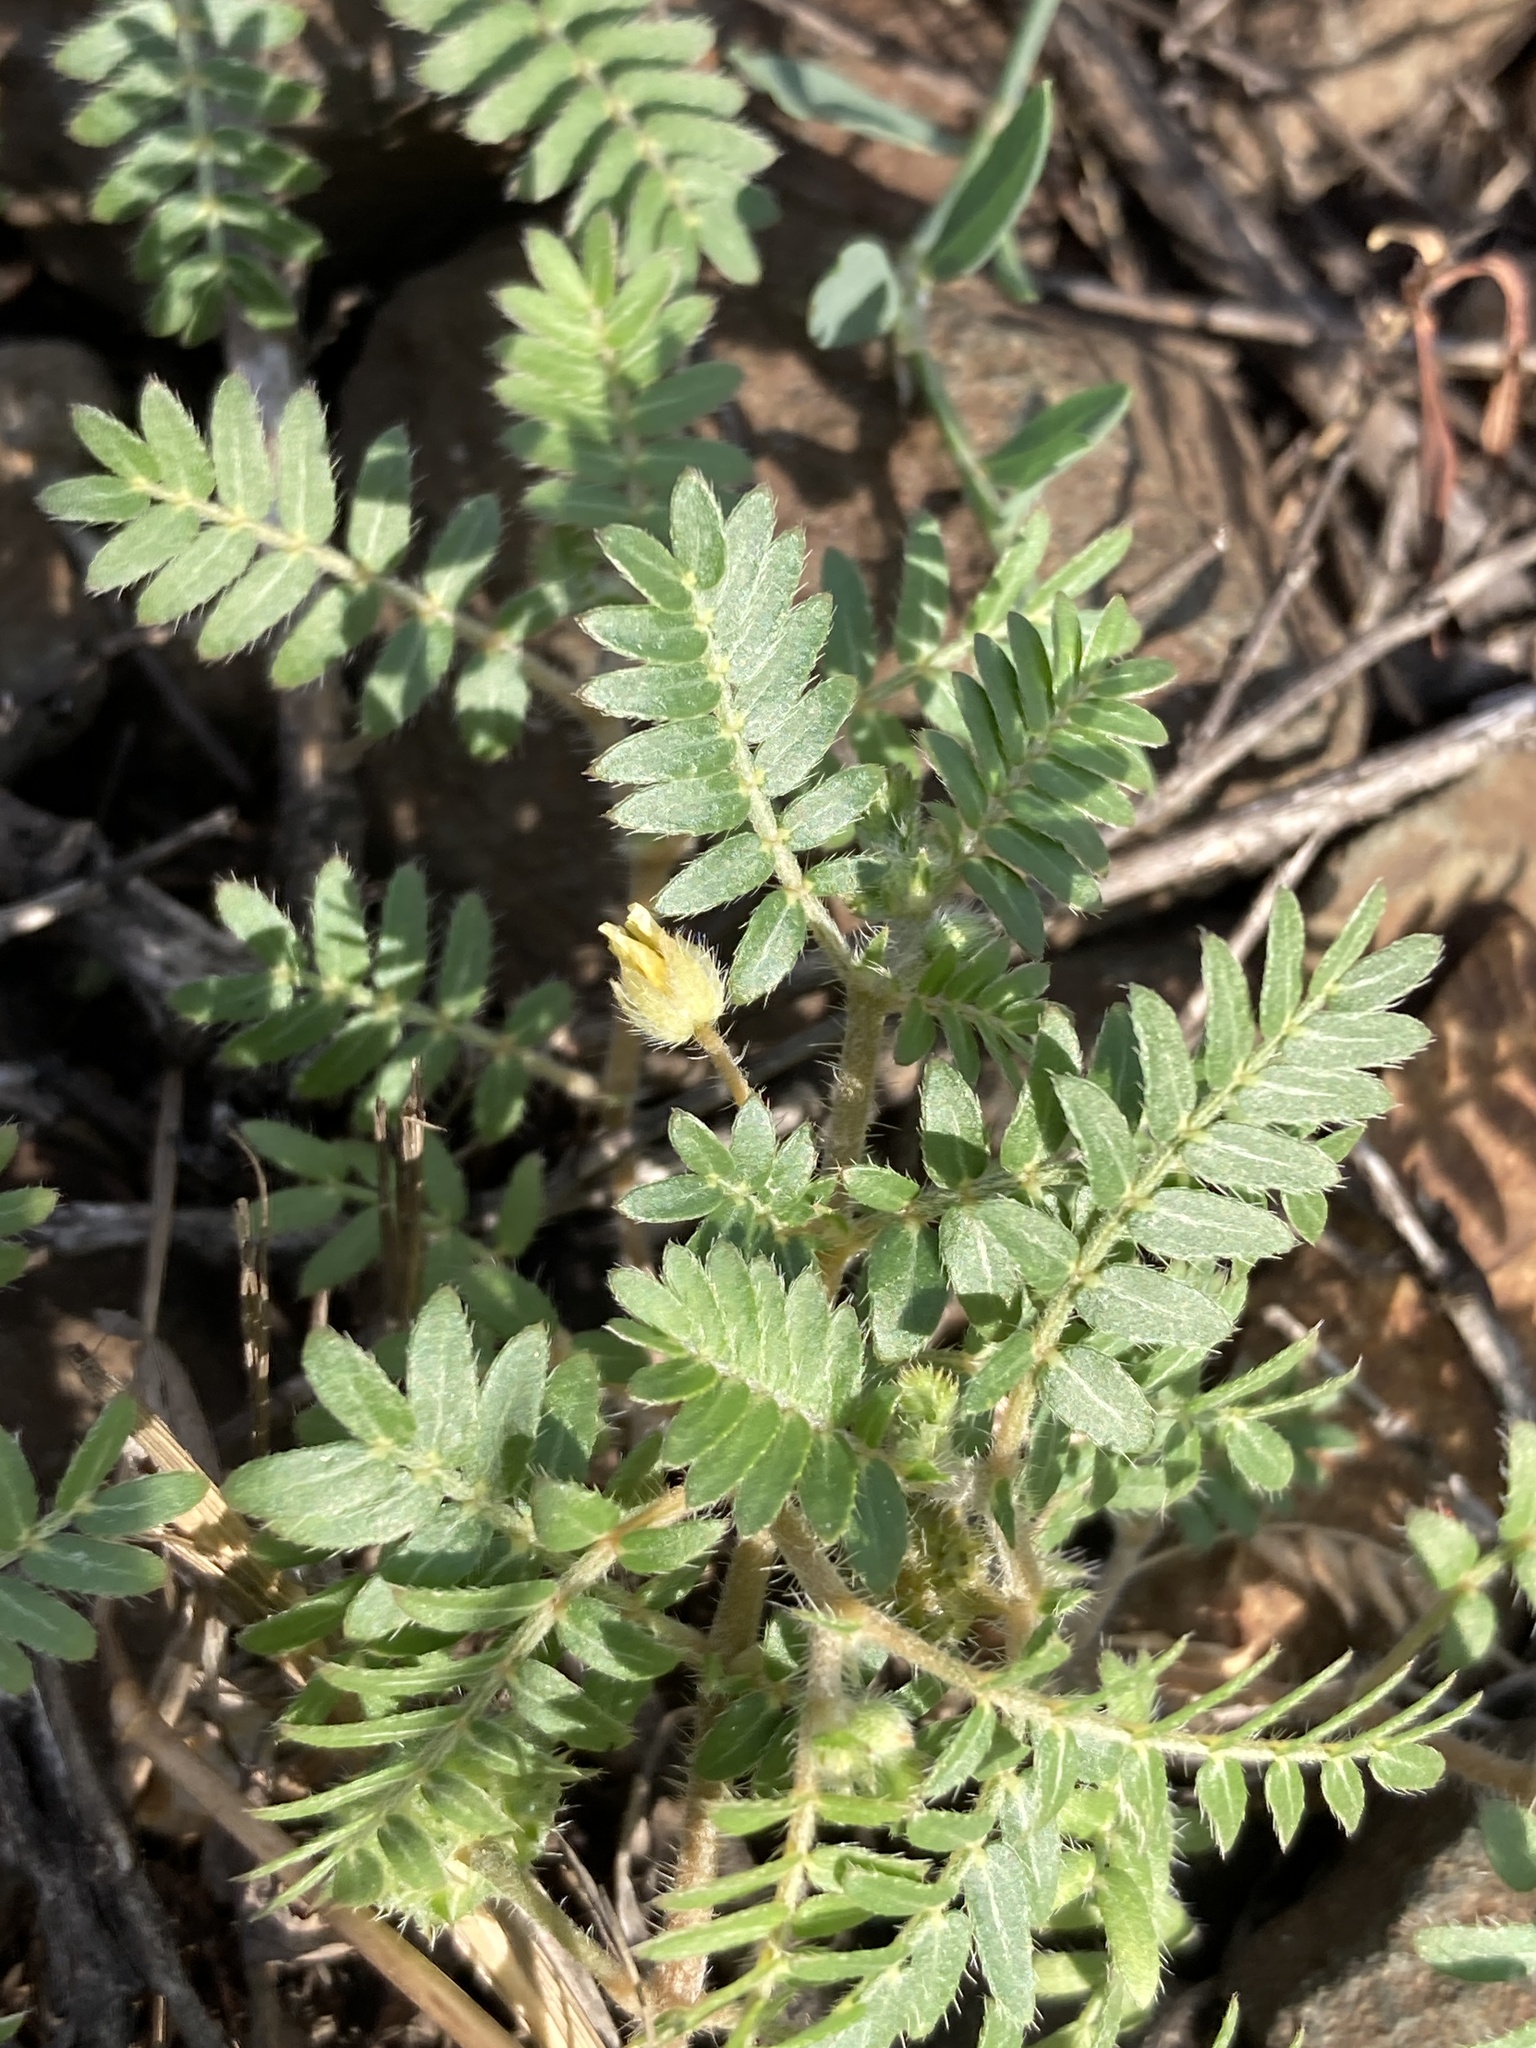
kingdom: Plantae
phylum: Tracheophyta
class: Magnoliopsida
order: Zygophyllales
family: Zygophyllaceae
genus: Tribulus
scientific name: Tribulus terrestris
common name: Puncturevine
